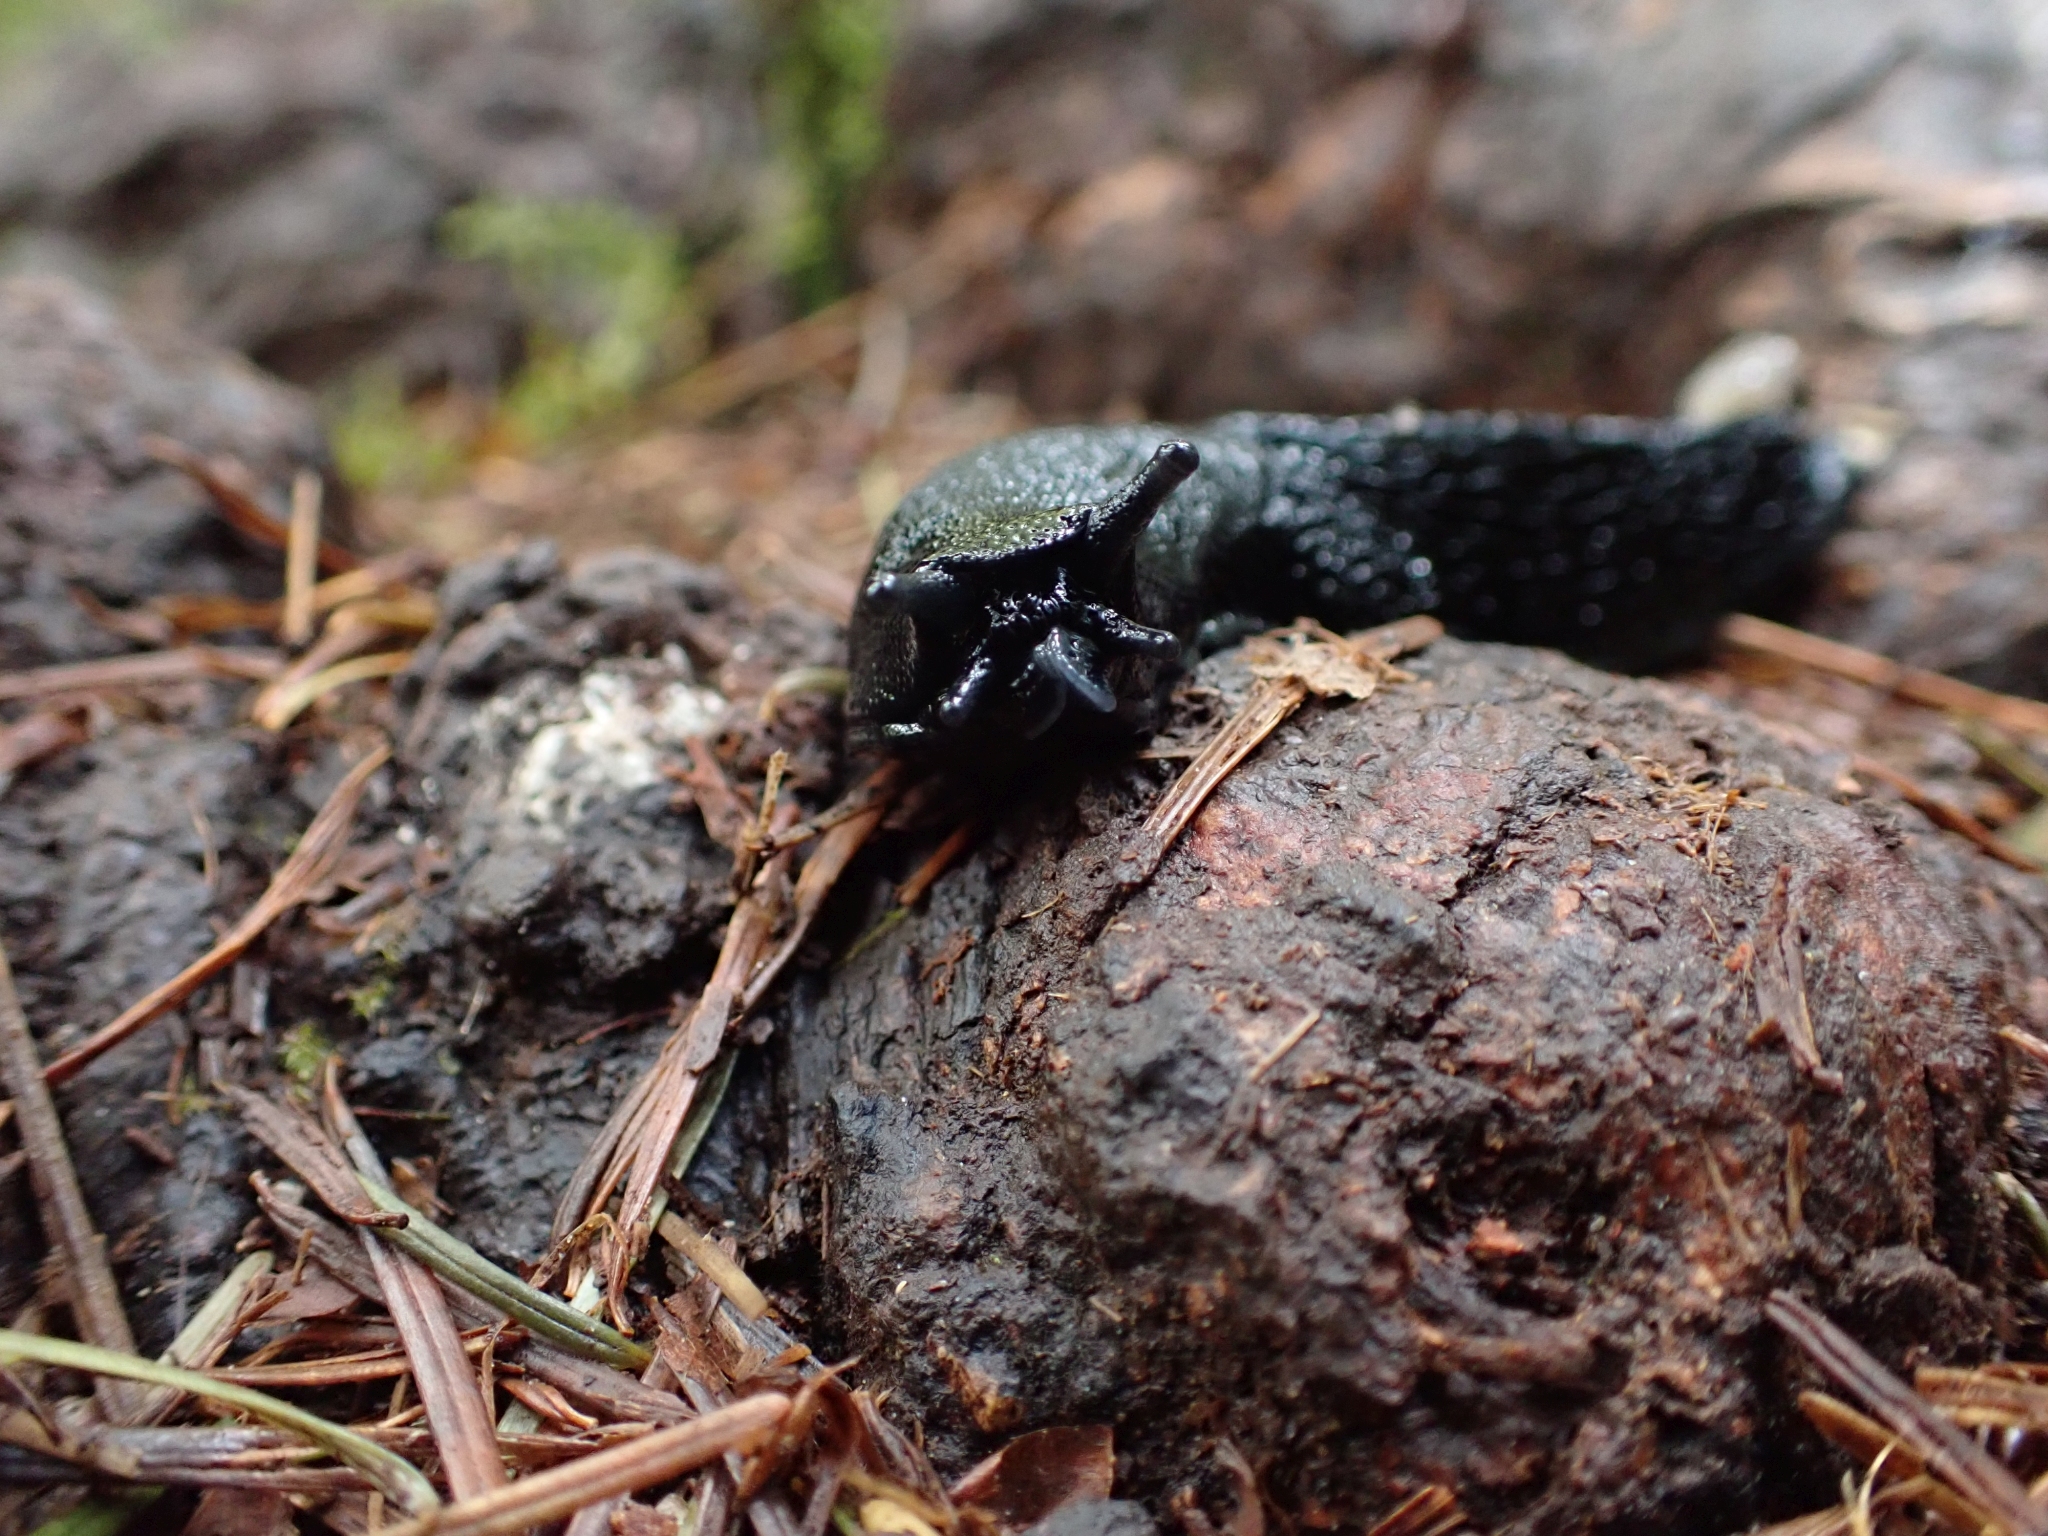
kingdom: Animalia
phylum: Mollusca
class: Gastropoda
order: Stylommatophora
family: Arionidae
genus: Arion
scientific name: Arion
